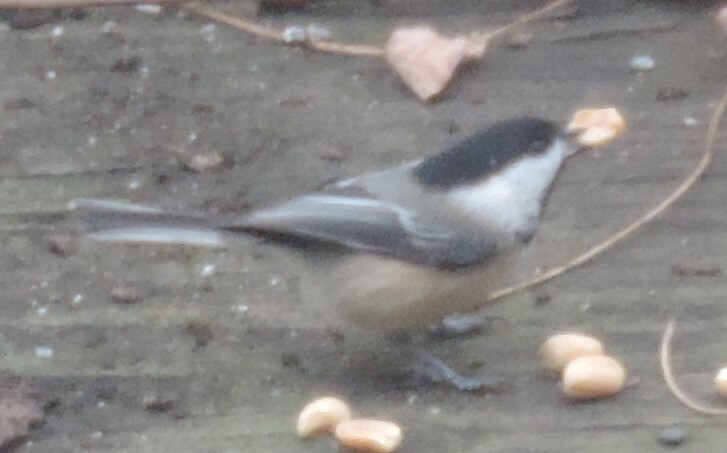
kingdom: Animalia
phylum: Chordata
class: Aves
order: Passeriformes
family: Paridae
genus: Poecile
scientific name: Poecile atricapillus
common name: Black-capped chickadee
